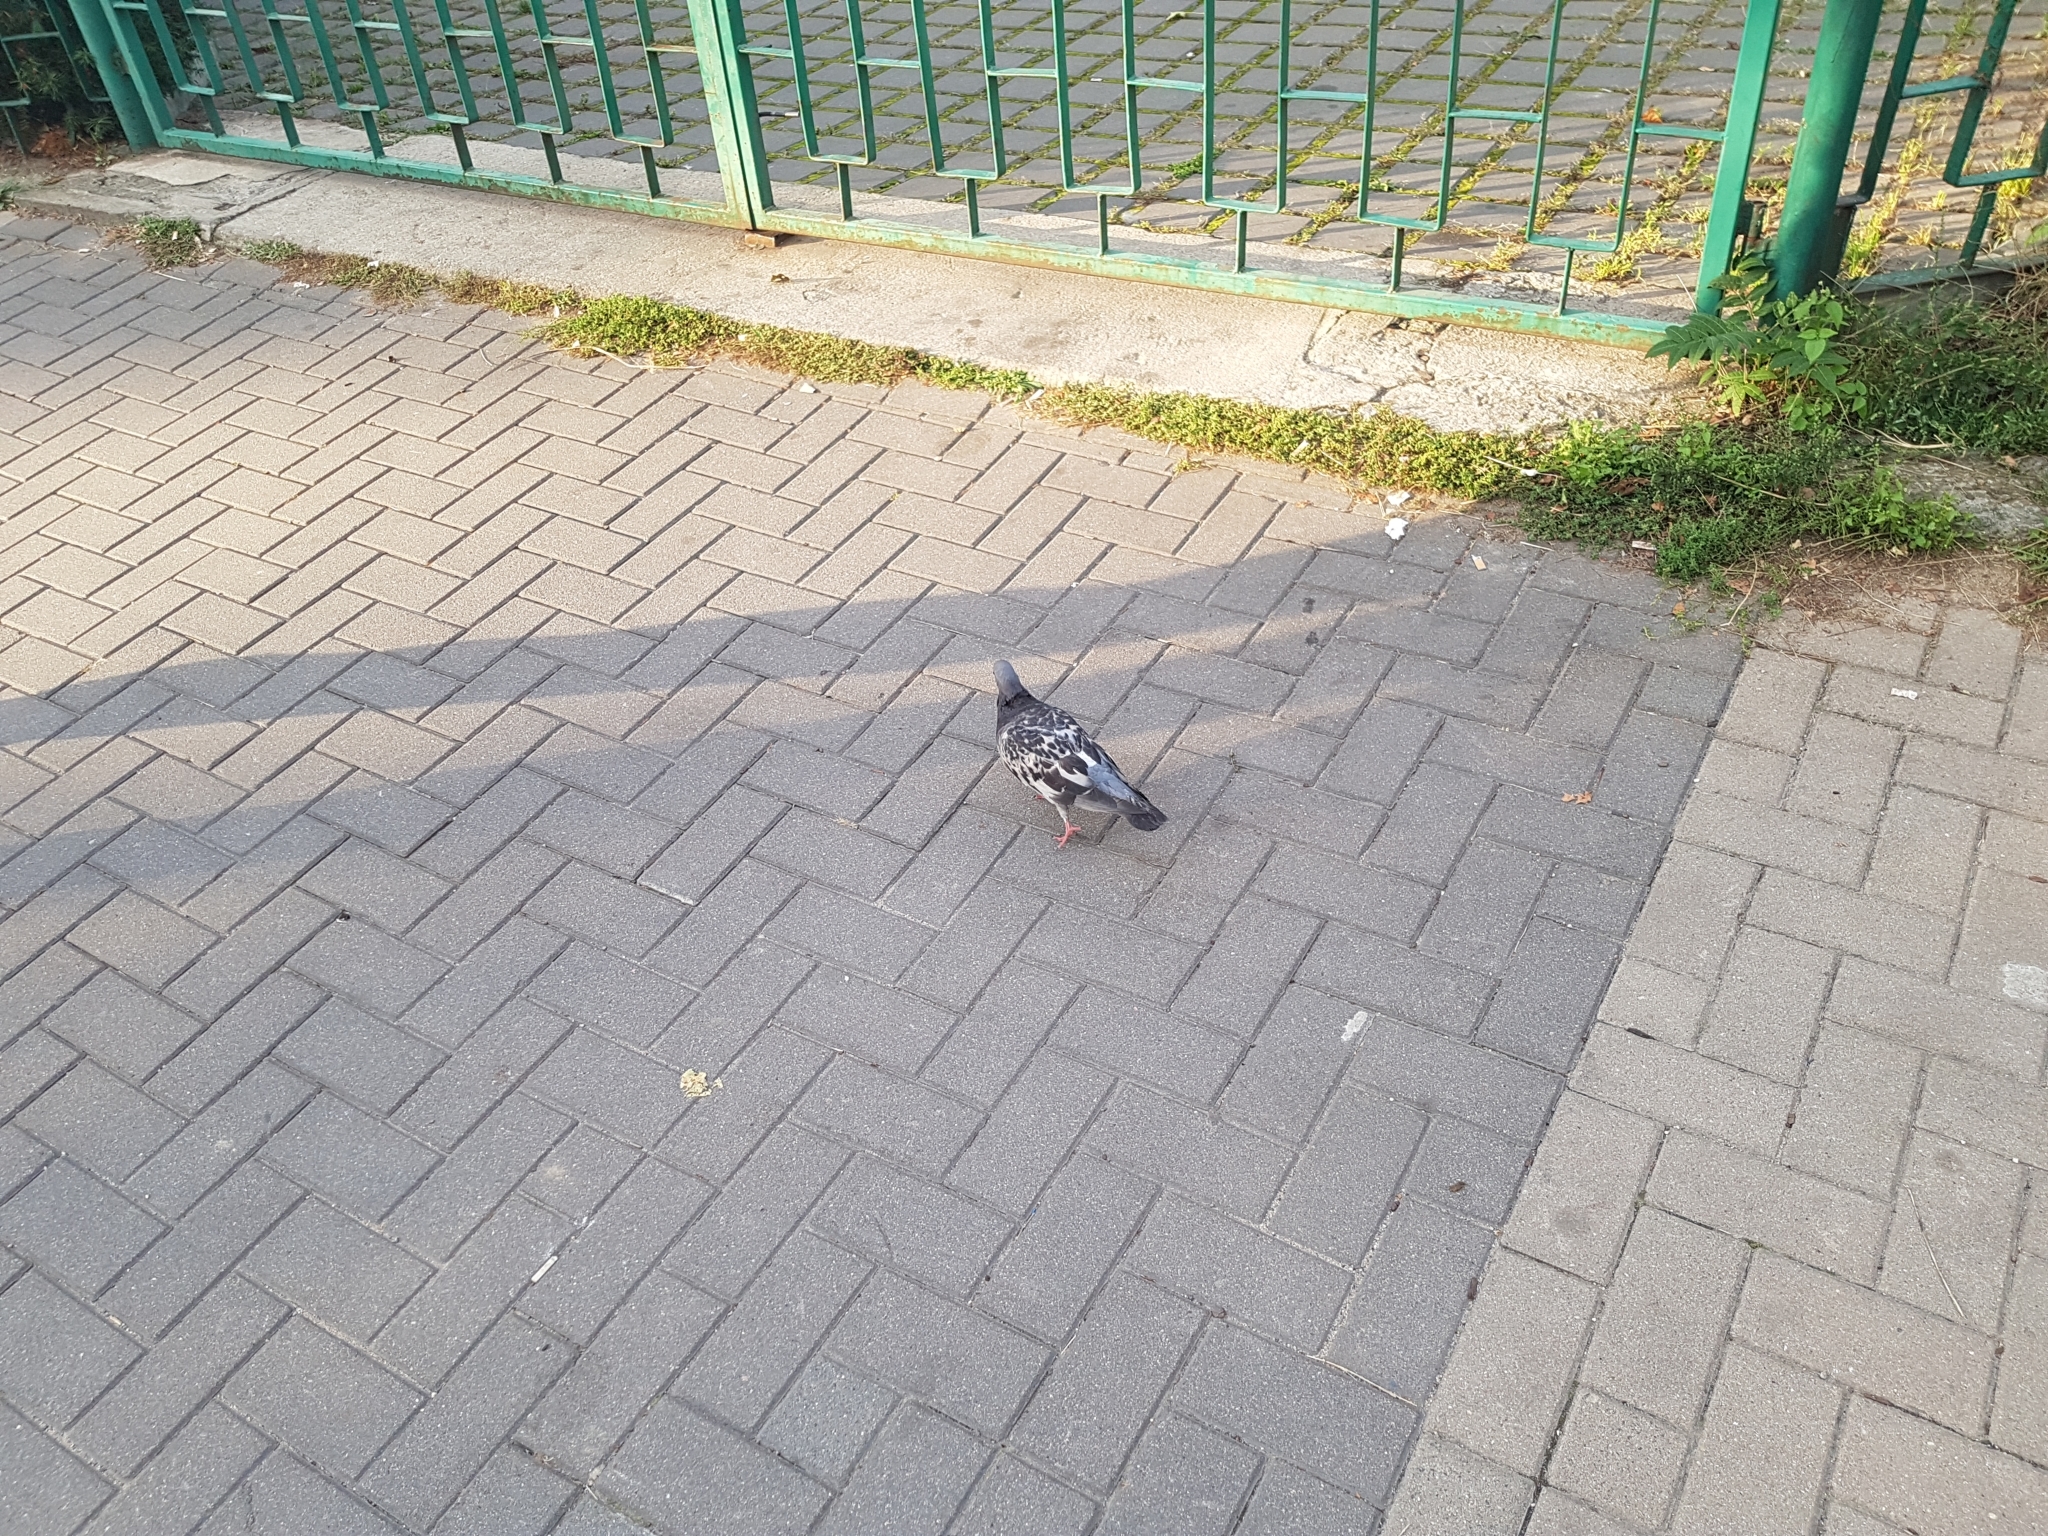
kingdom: Animalia
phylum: Chordata
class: Aves
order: Columbiformes
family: Columbidae
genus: Columba
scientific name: Columba livia
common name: Rock pigeon
